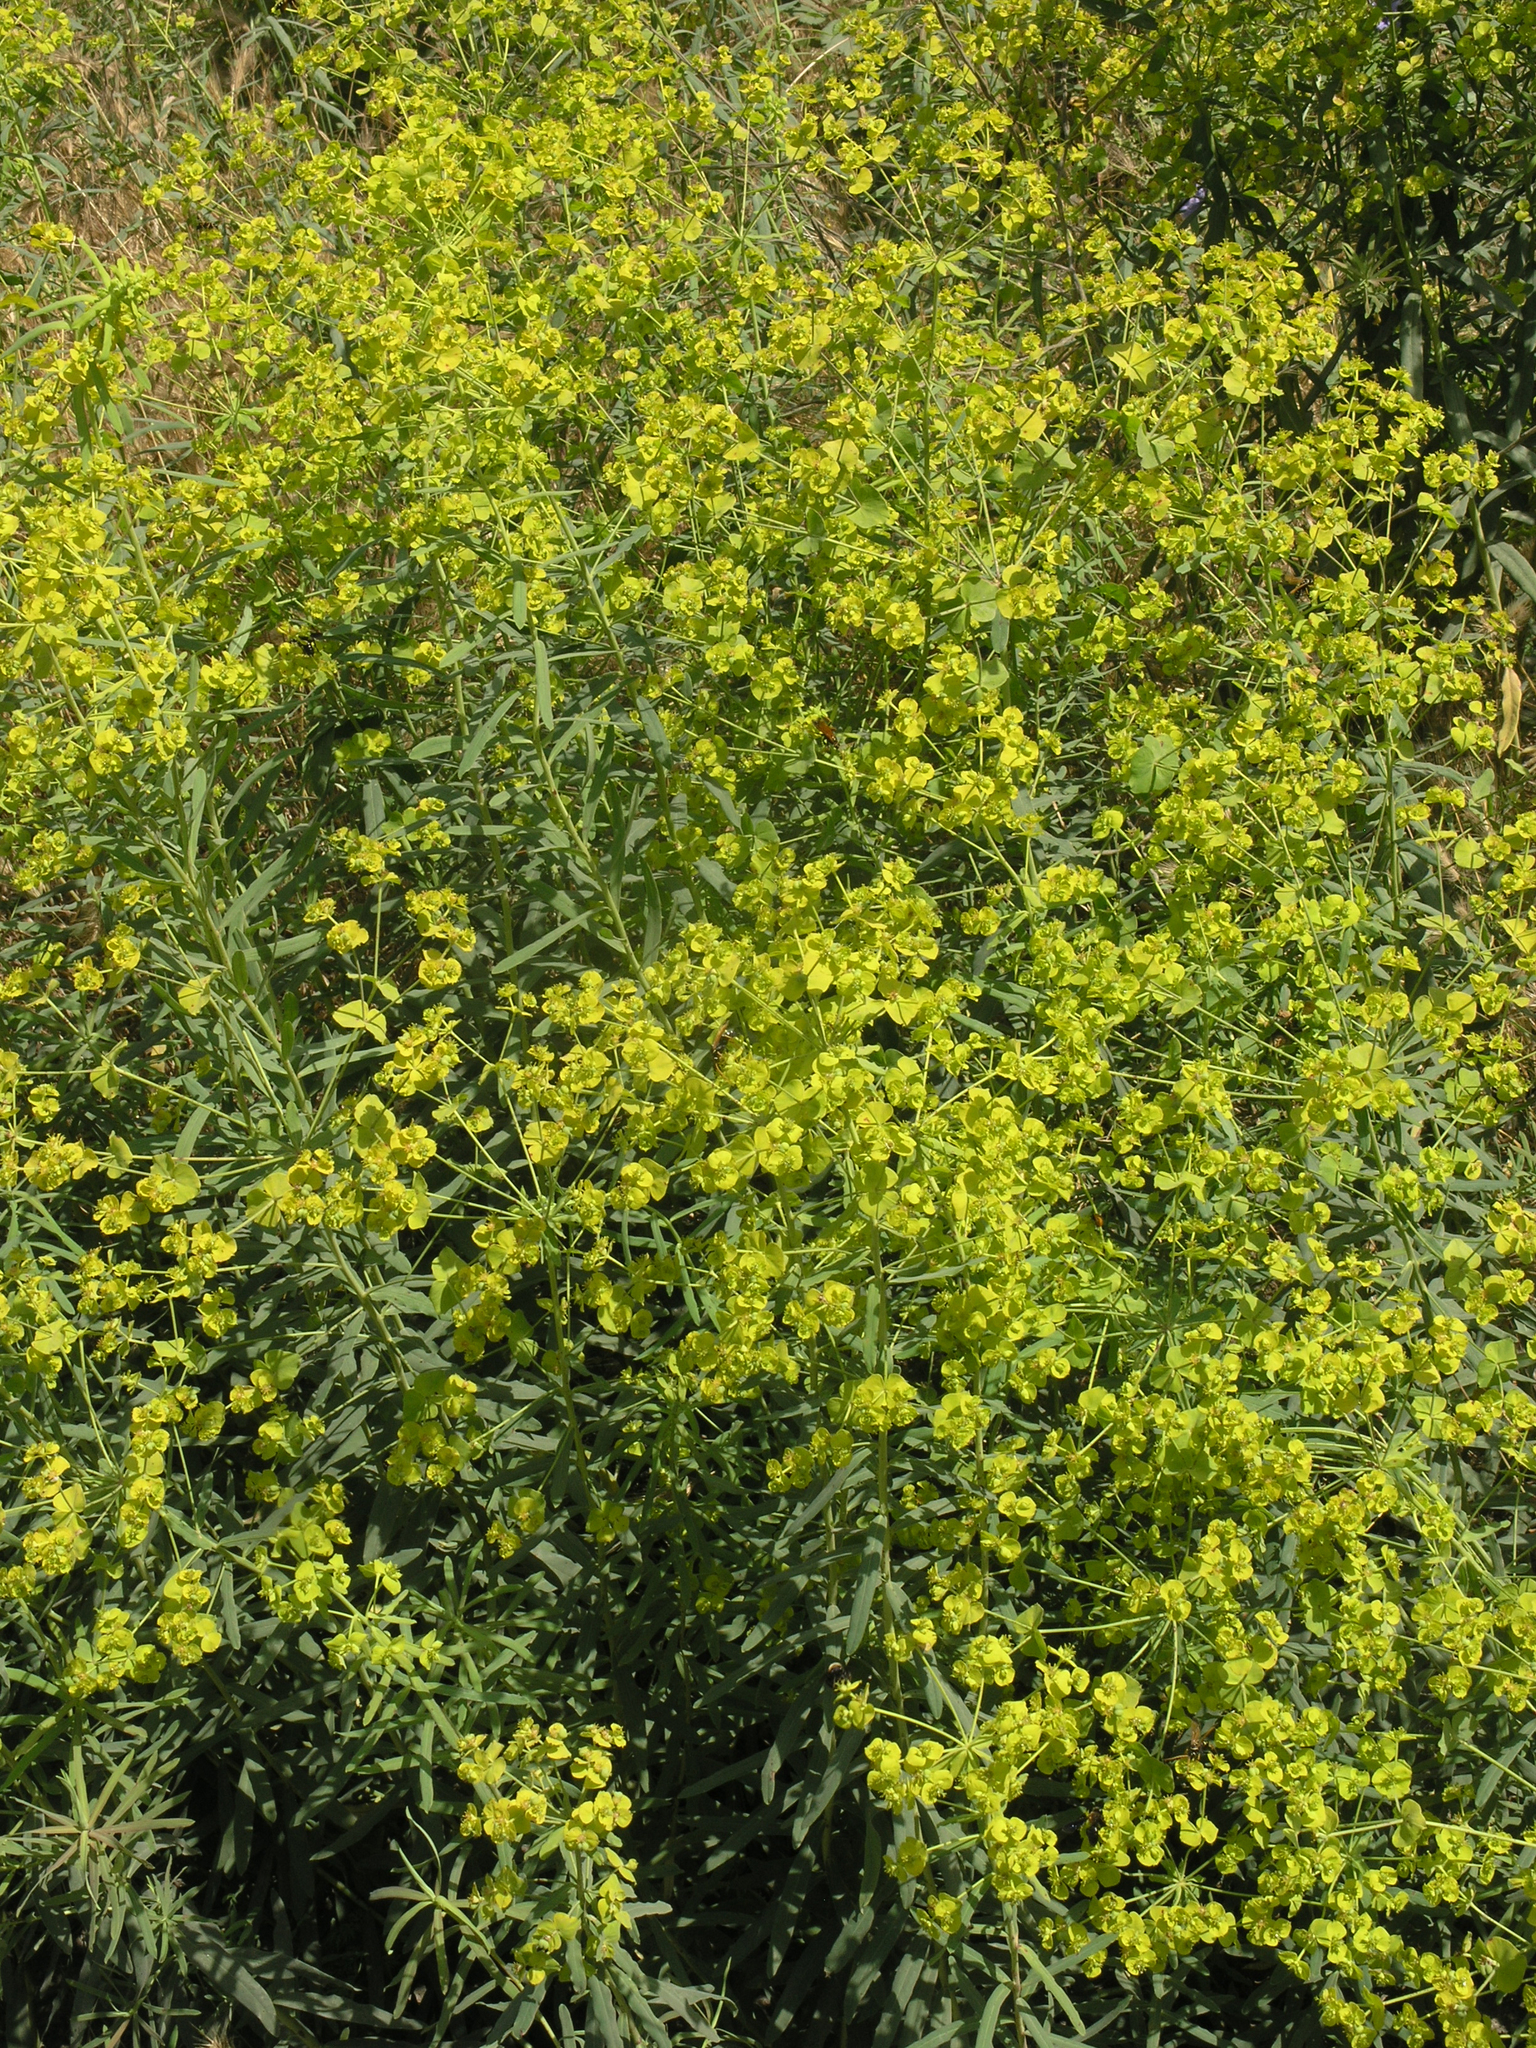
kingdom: Plantae
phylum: Tracheophyta
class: Magnoliopsida
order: Malpighiales
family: Euphorbiaceae
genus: Euphorbia
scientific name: Euphorbia virgata
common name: Leafy spurge
